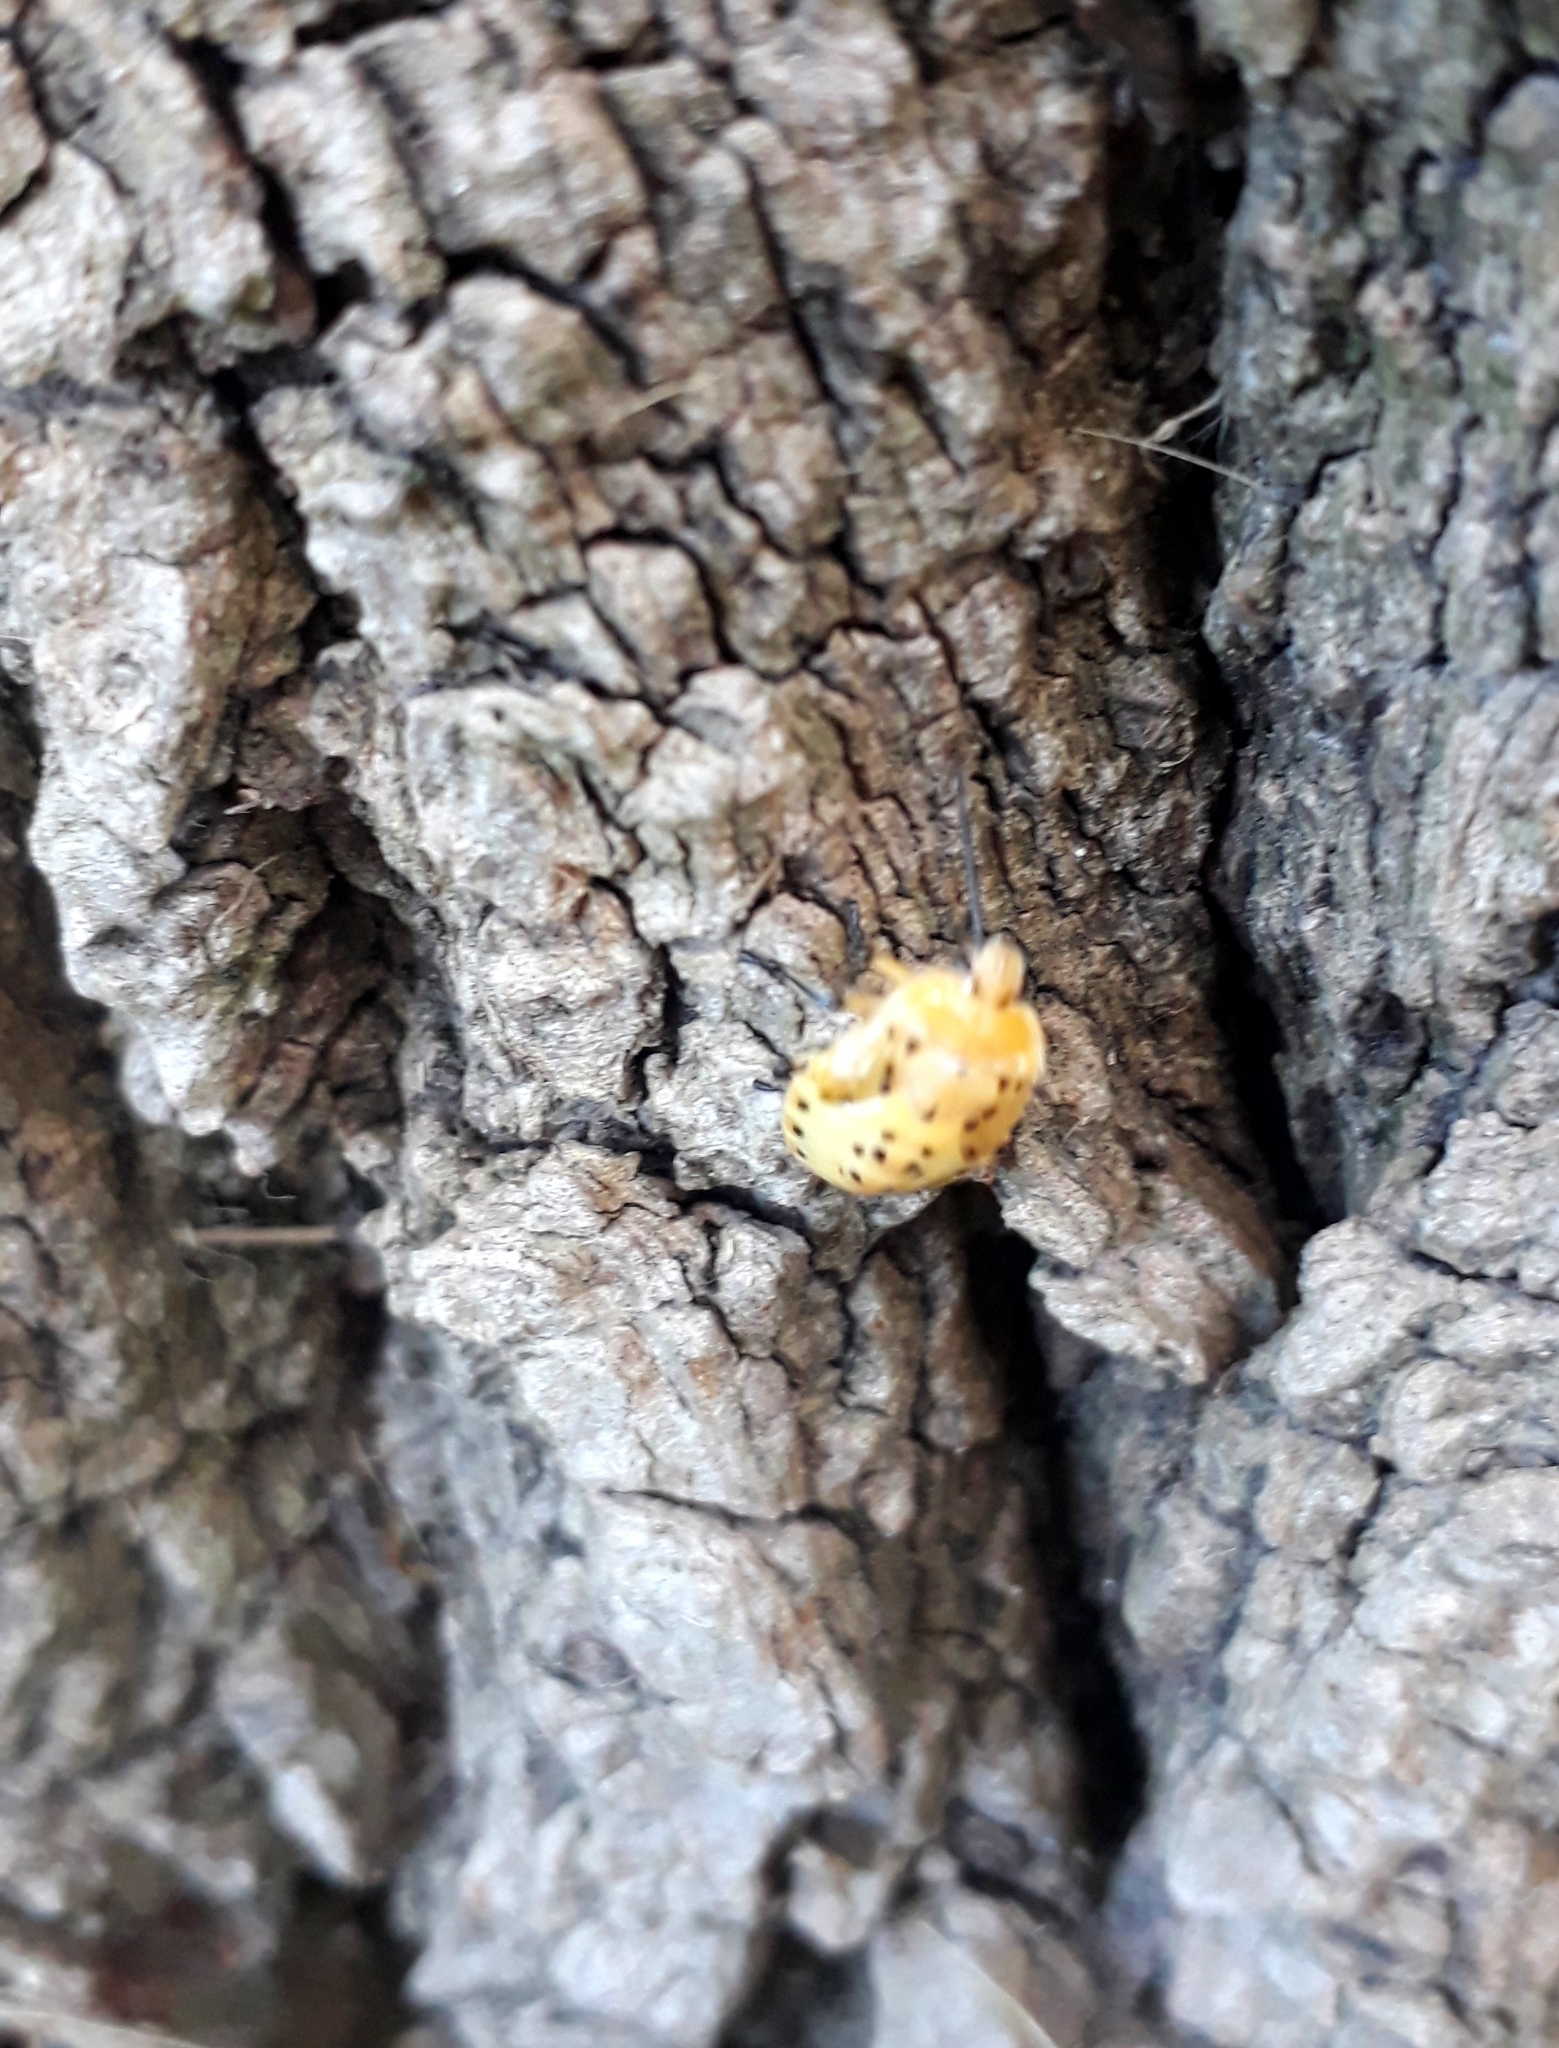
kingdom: Animalia
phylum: Arthropoda
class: Insecta
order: Hemiptera
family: Pentatomidae
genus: Brontocoris
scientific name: Brontocoris tabidus
